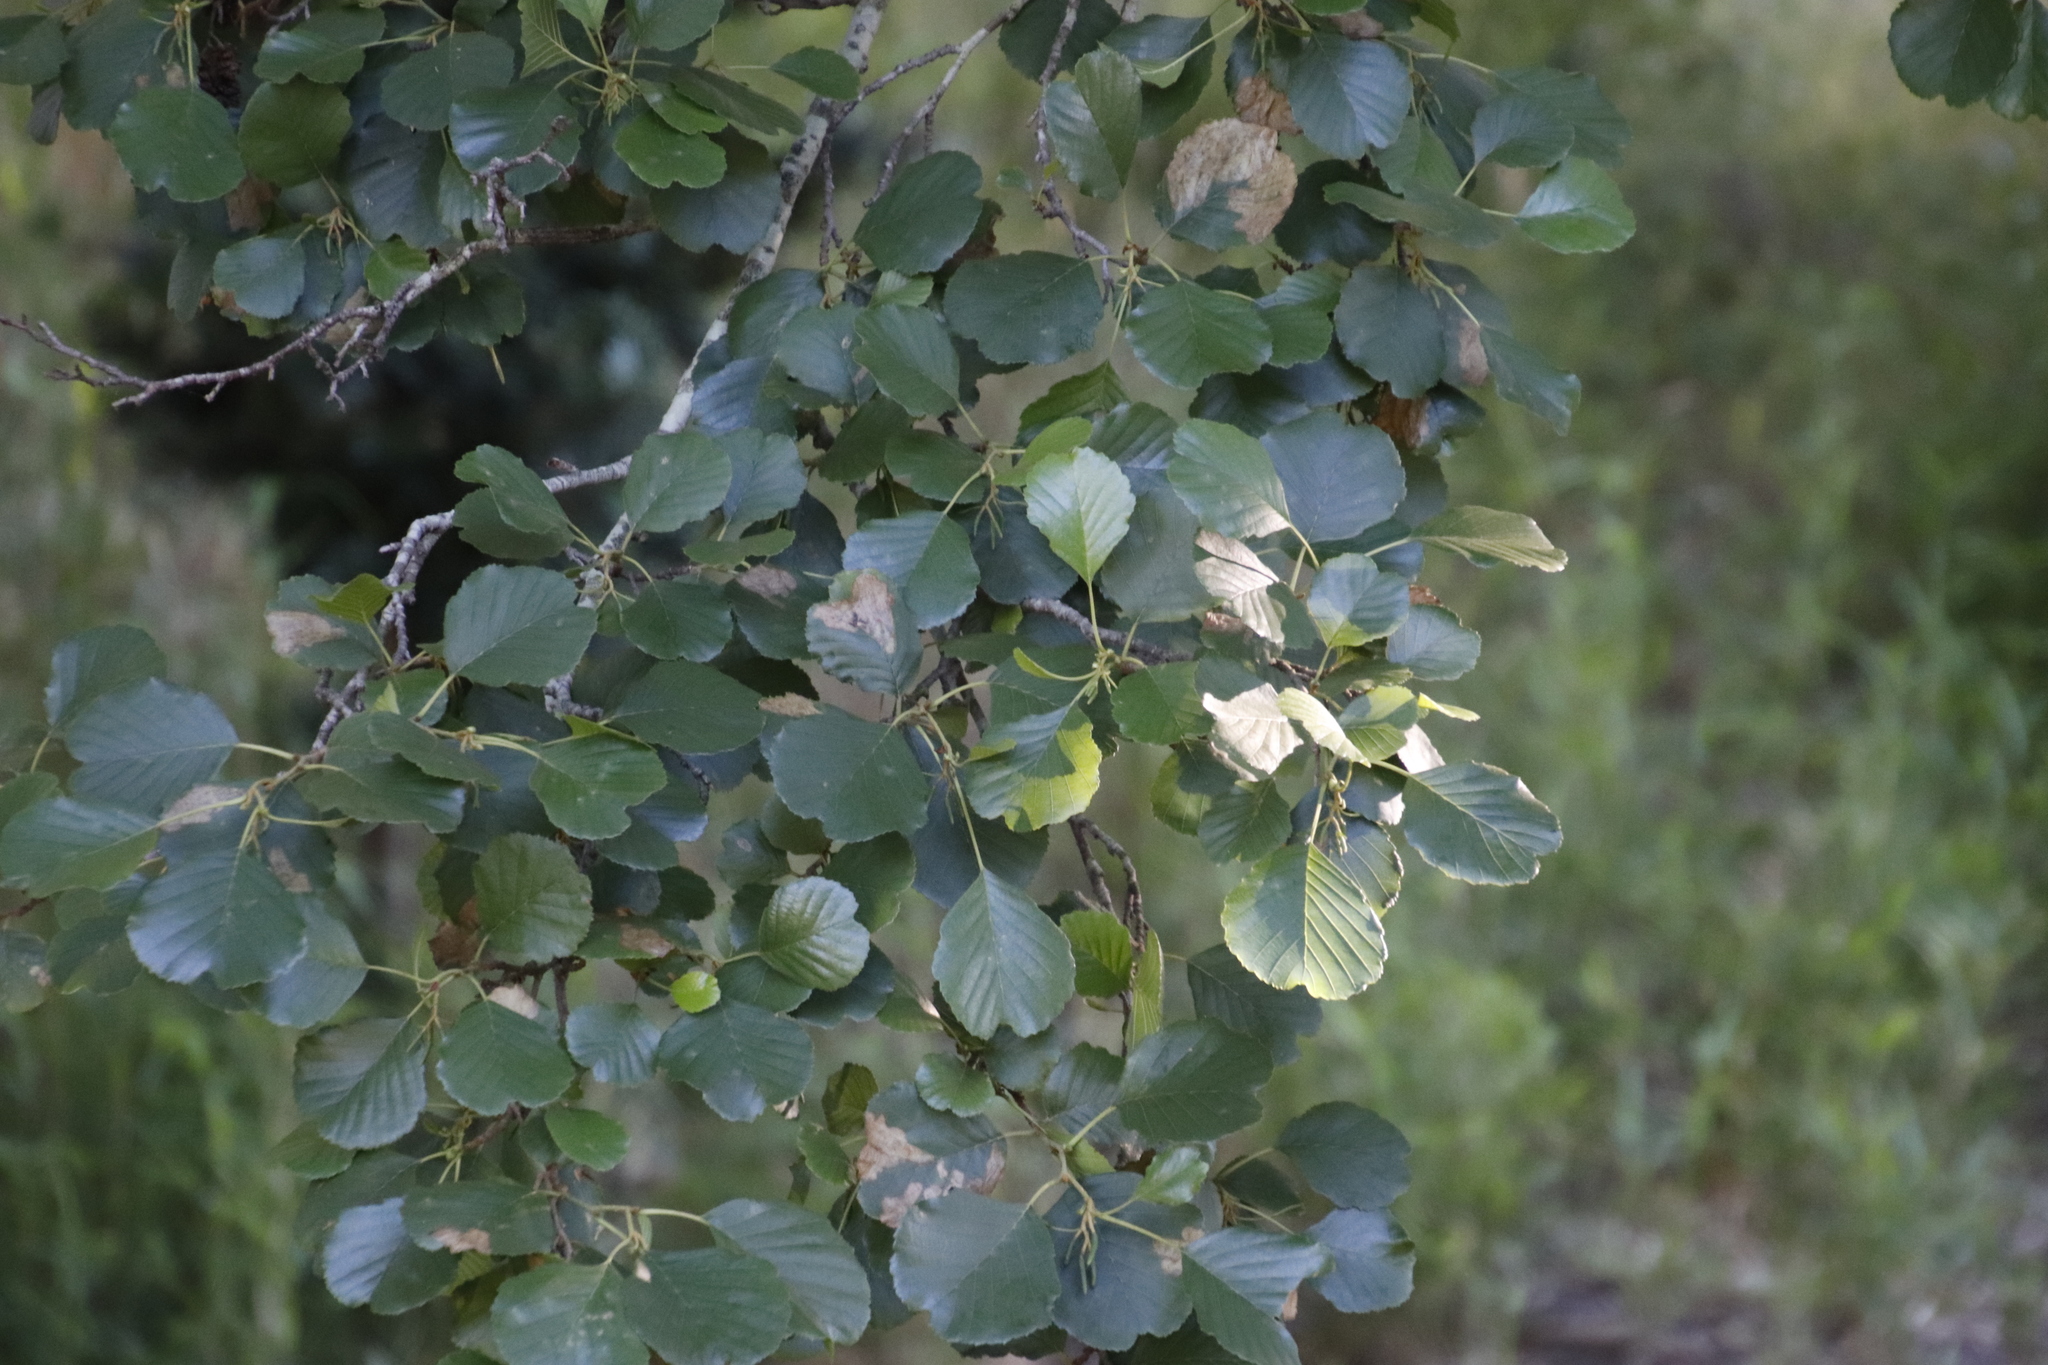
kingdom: Plantae
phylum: Tracheophyta
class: Magnoliopsida
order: Fagales
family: Betulaceae
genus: Alnus
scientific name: Alnus glutinosa
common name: Black alder
